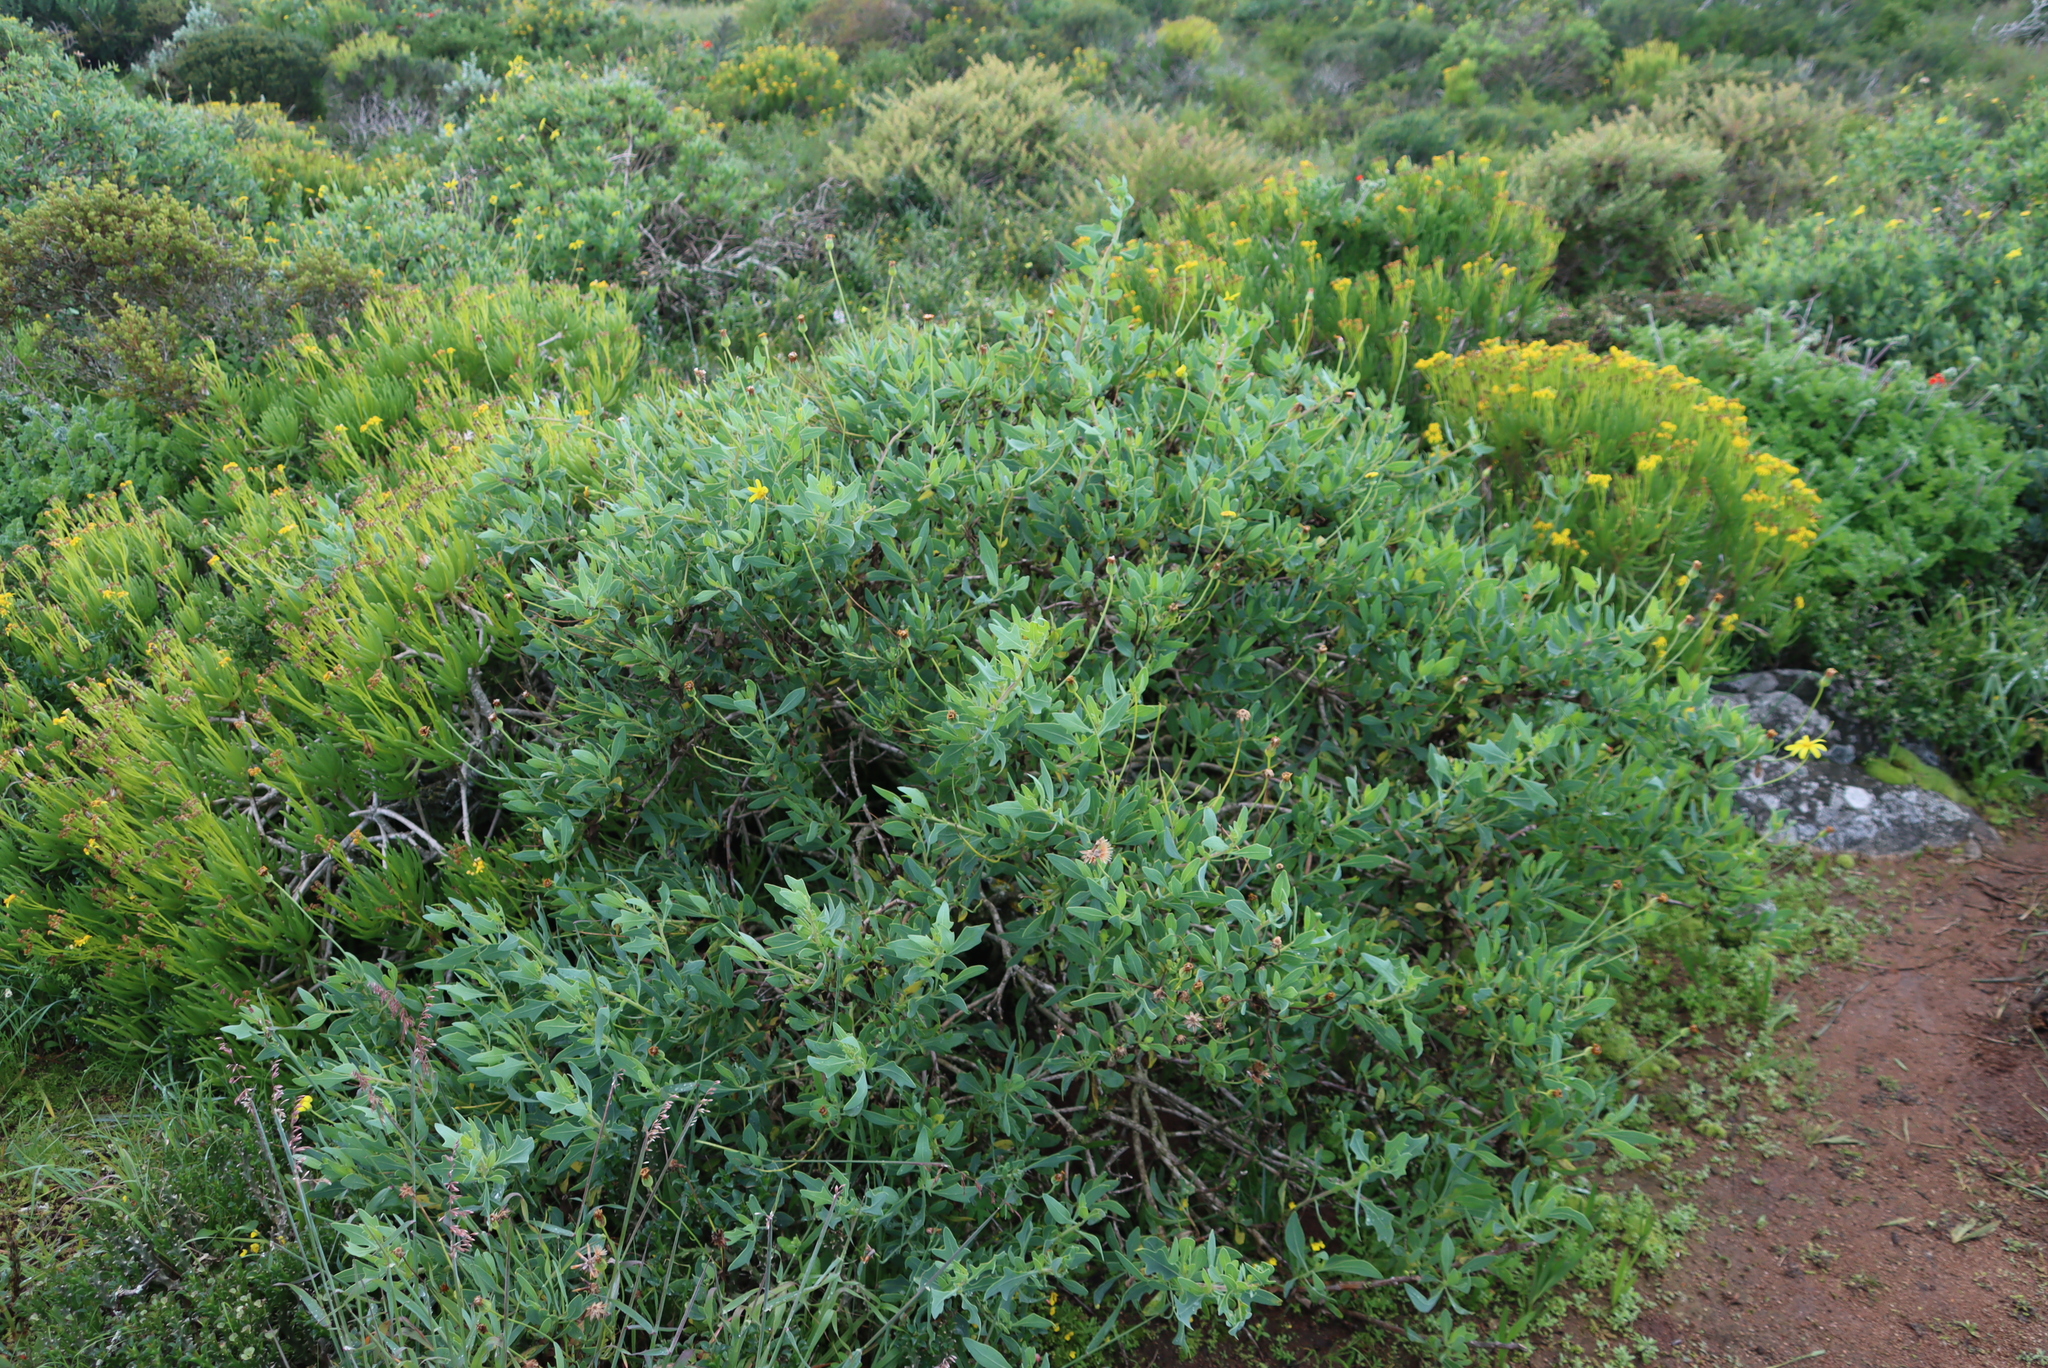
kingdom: Plantae
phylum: Tracheophyta
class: Magnoliopsida
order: Asterales
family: Asteraceae
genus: Othonna
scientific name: Othonna coronopifolia
